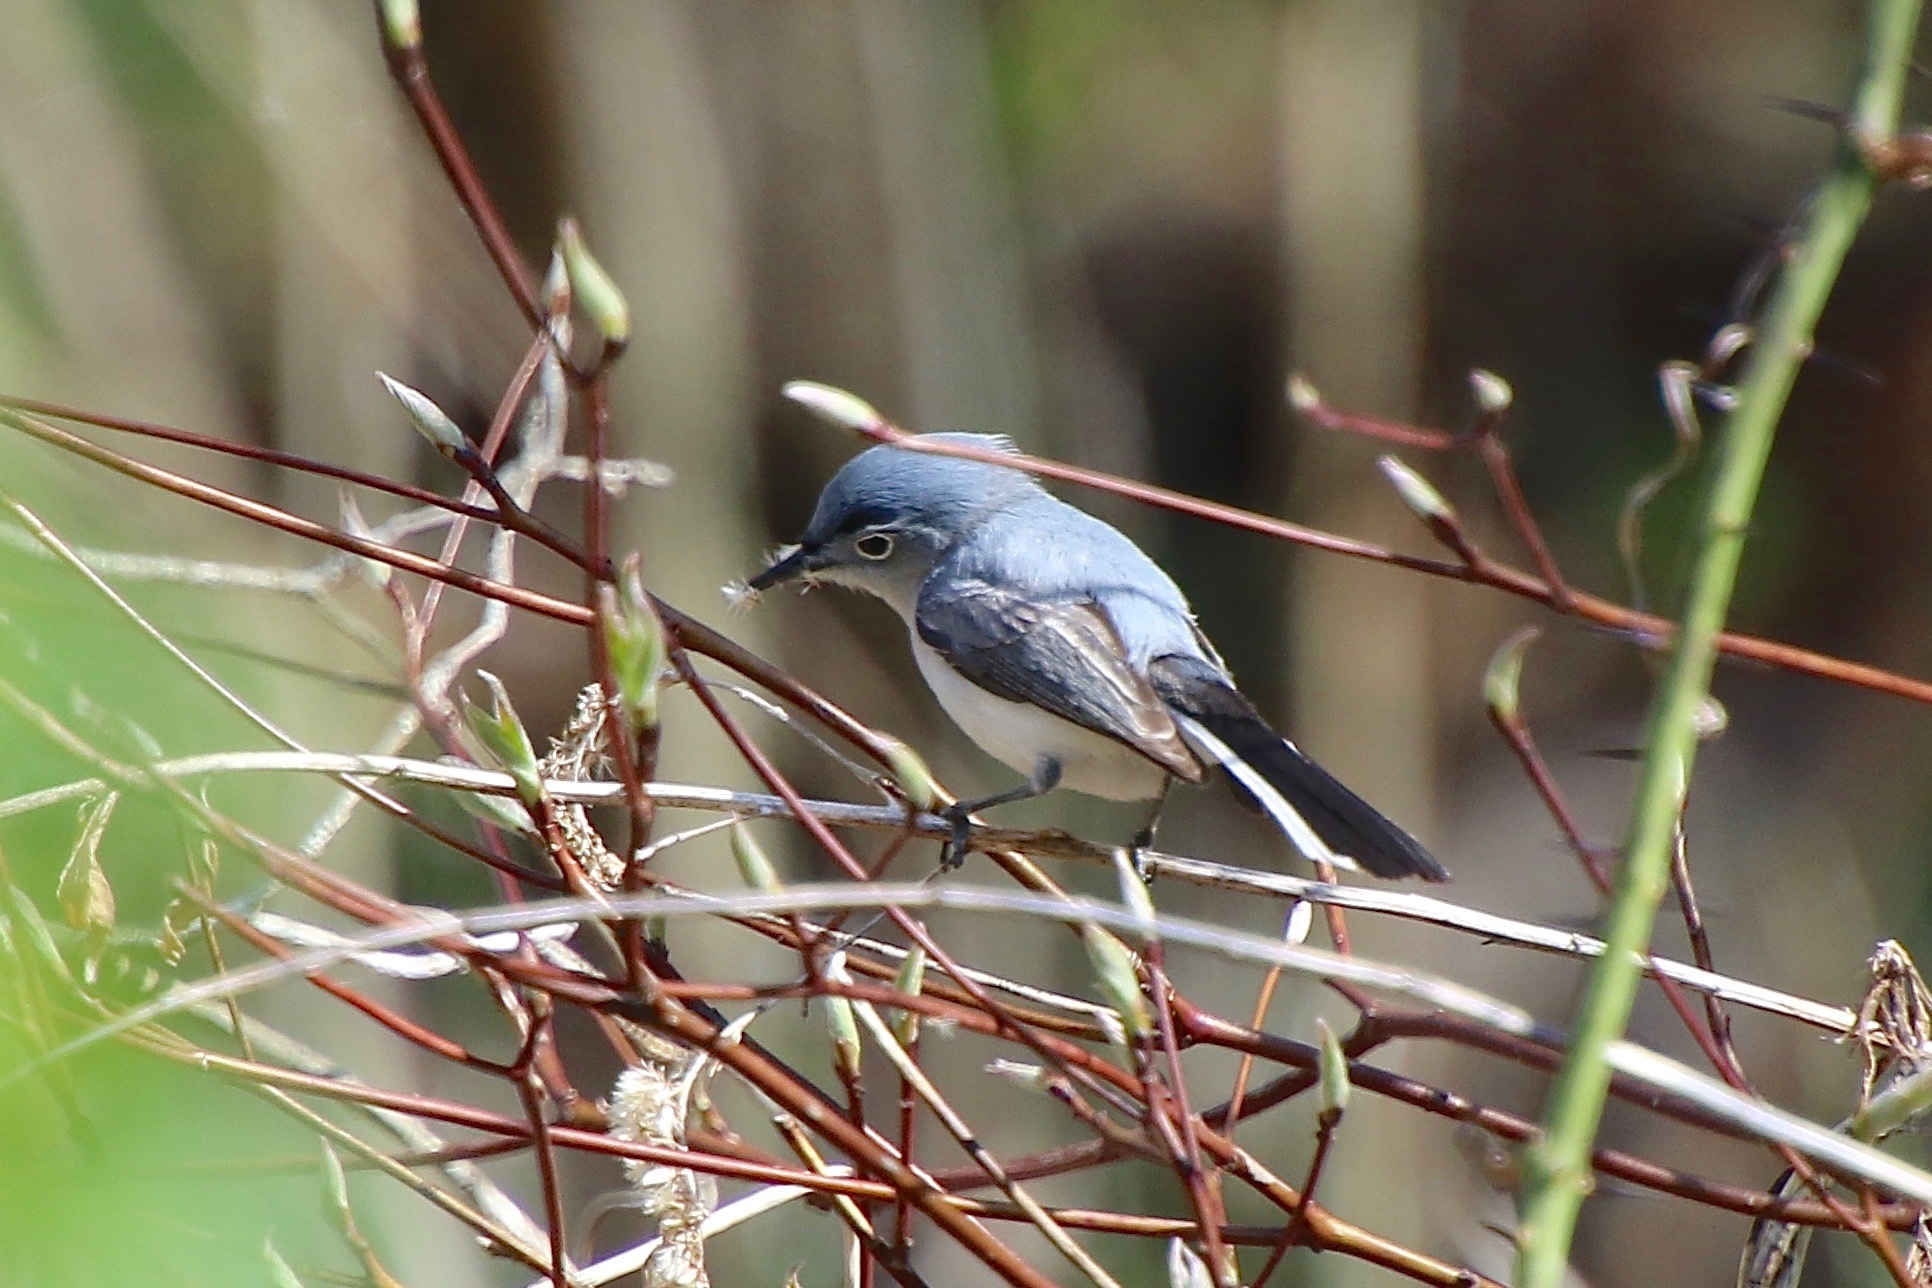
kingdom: Animalia
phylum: Chordata
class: Aves
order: Passeriformes
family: Polioptilidae
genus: Polioptila
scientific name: Polioptila caerulea
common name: Blue-gray gnatcatcher
